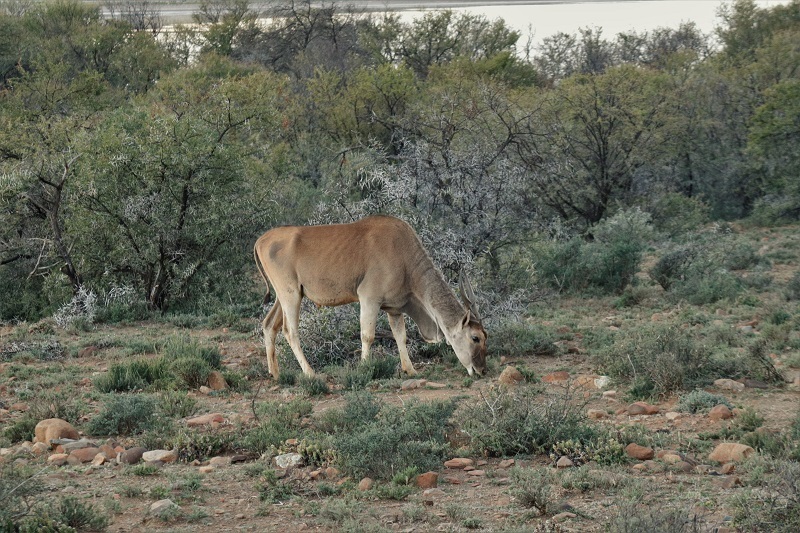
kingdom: Animalia
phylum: Chordata
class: Mammalia
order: Artiodactyla
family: Bovidae
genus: Taurotragus
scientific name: Taurotragus oryx
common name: Common eland
